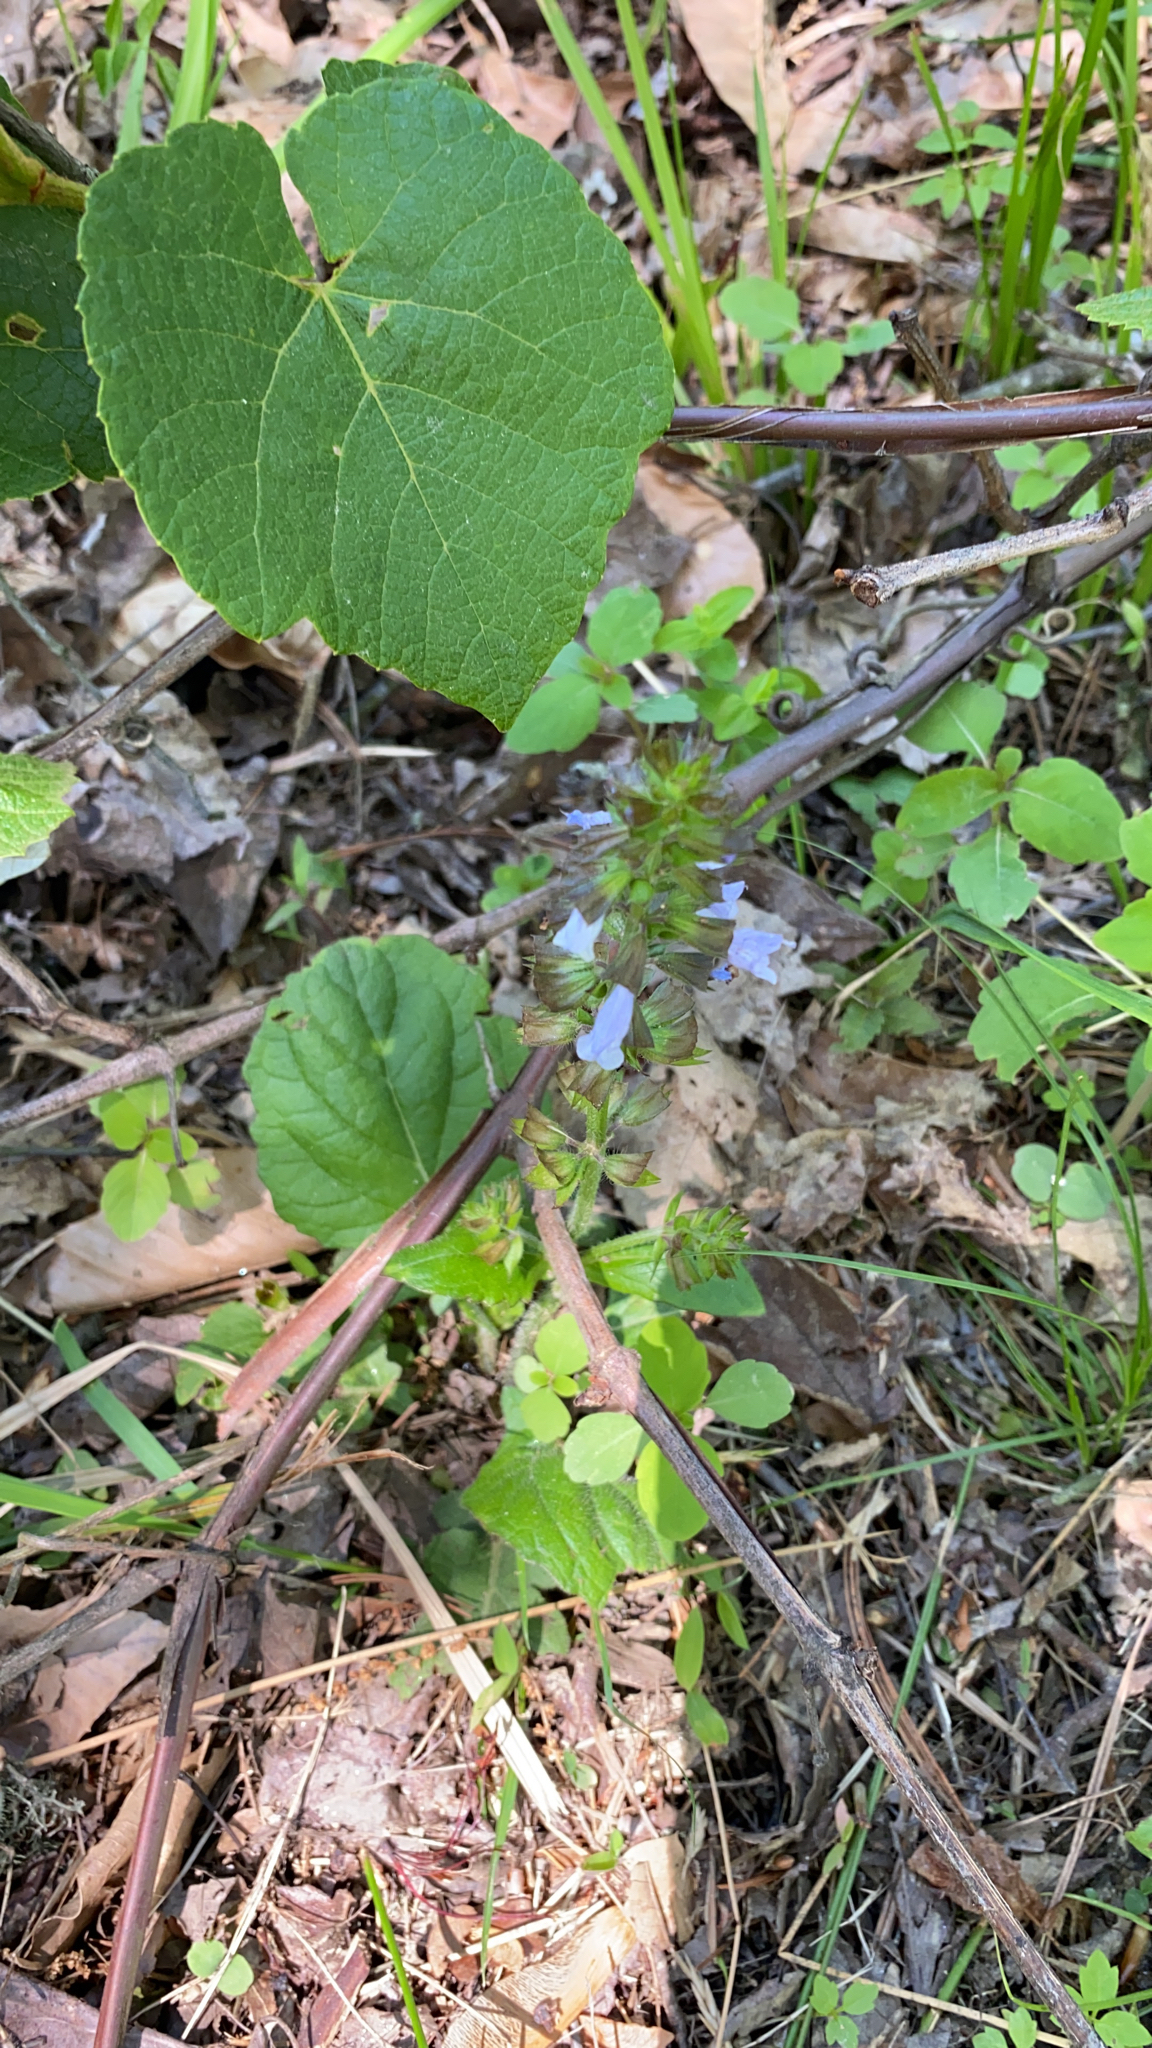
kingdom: Plantae
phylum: Tracheophyta
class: Magnoliopsida
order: Lamiales
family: Lamiaceae
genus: Salvia
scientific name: Salvia lyrata
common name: Cancerweed
